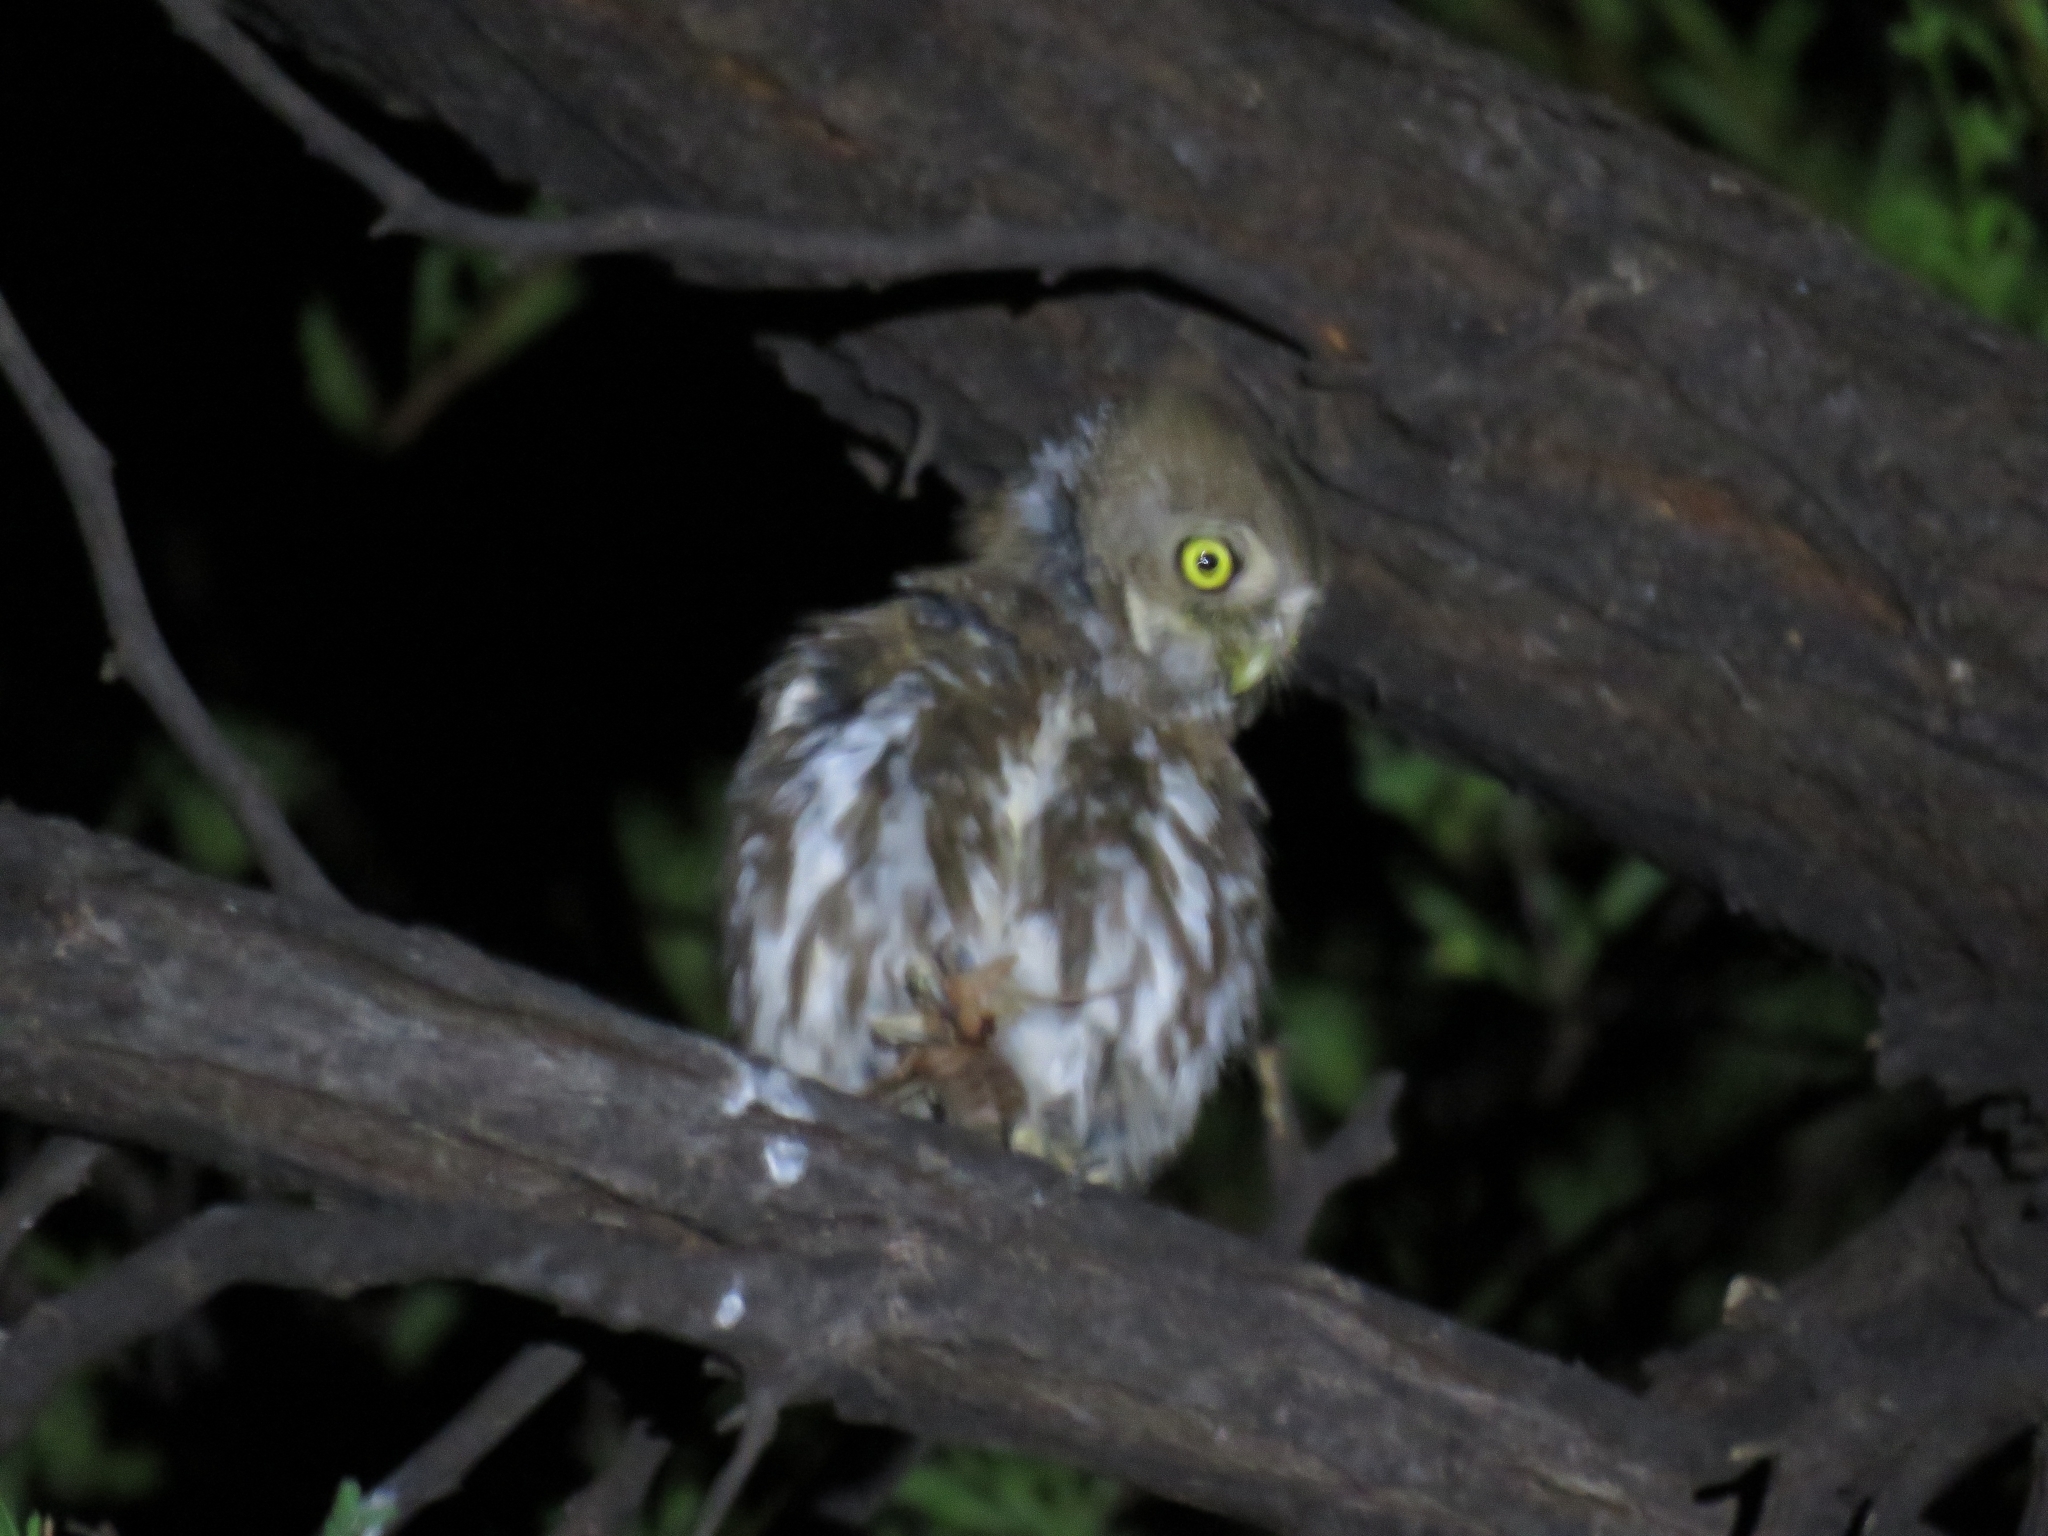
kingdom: Animalia
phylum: Chordata
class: Aves
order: Strigiformes
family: Strigidae
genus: Glaucidium
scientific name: Glaucidium perlatum
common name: Pearl-spotted owlet
